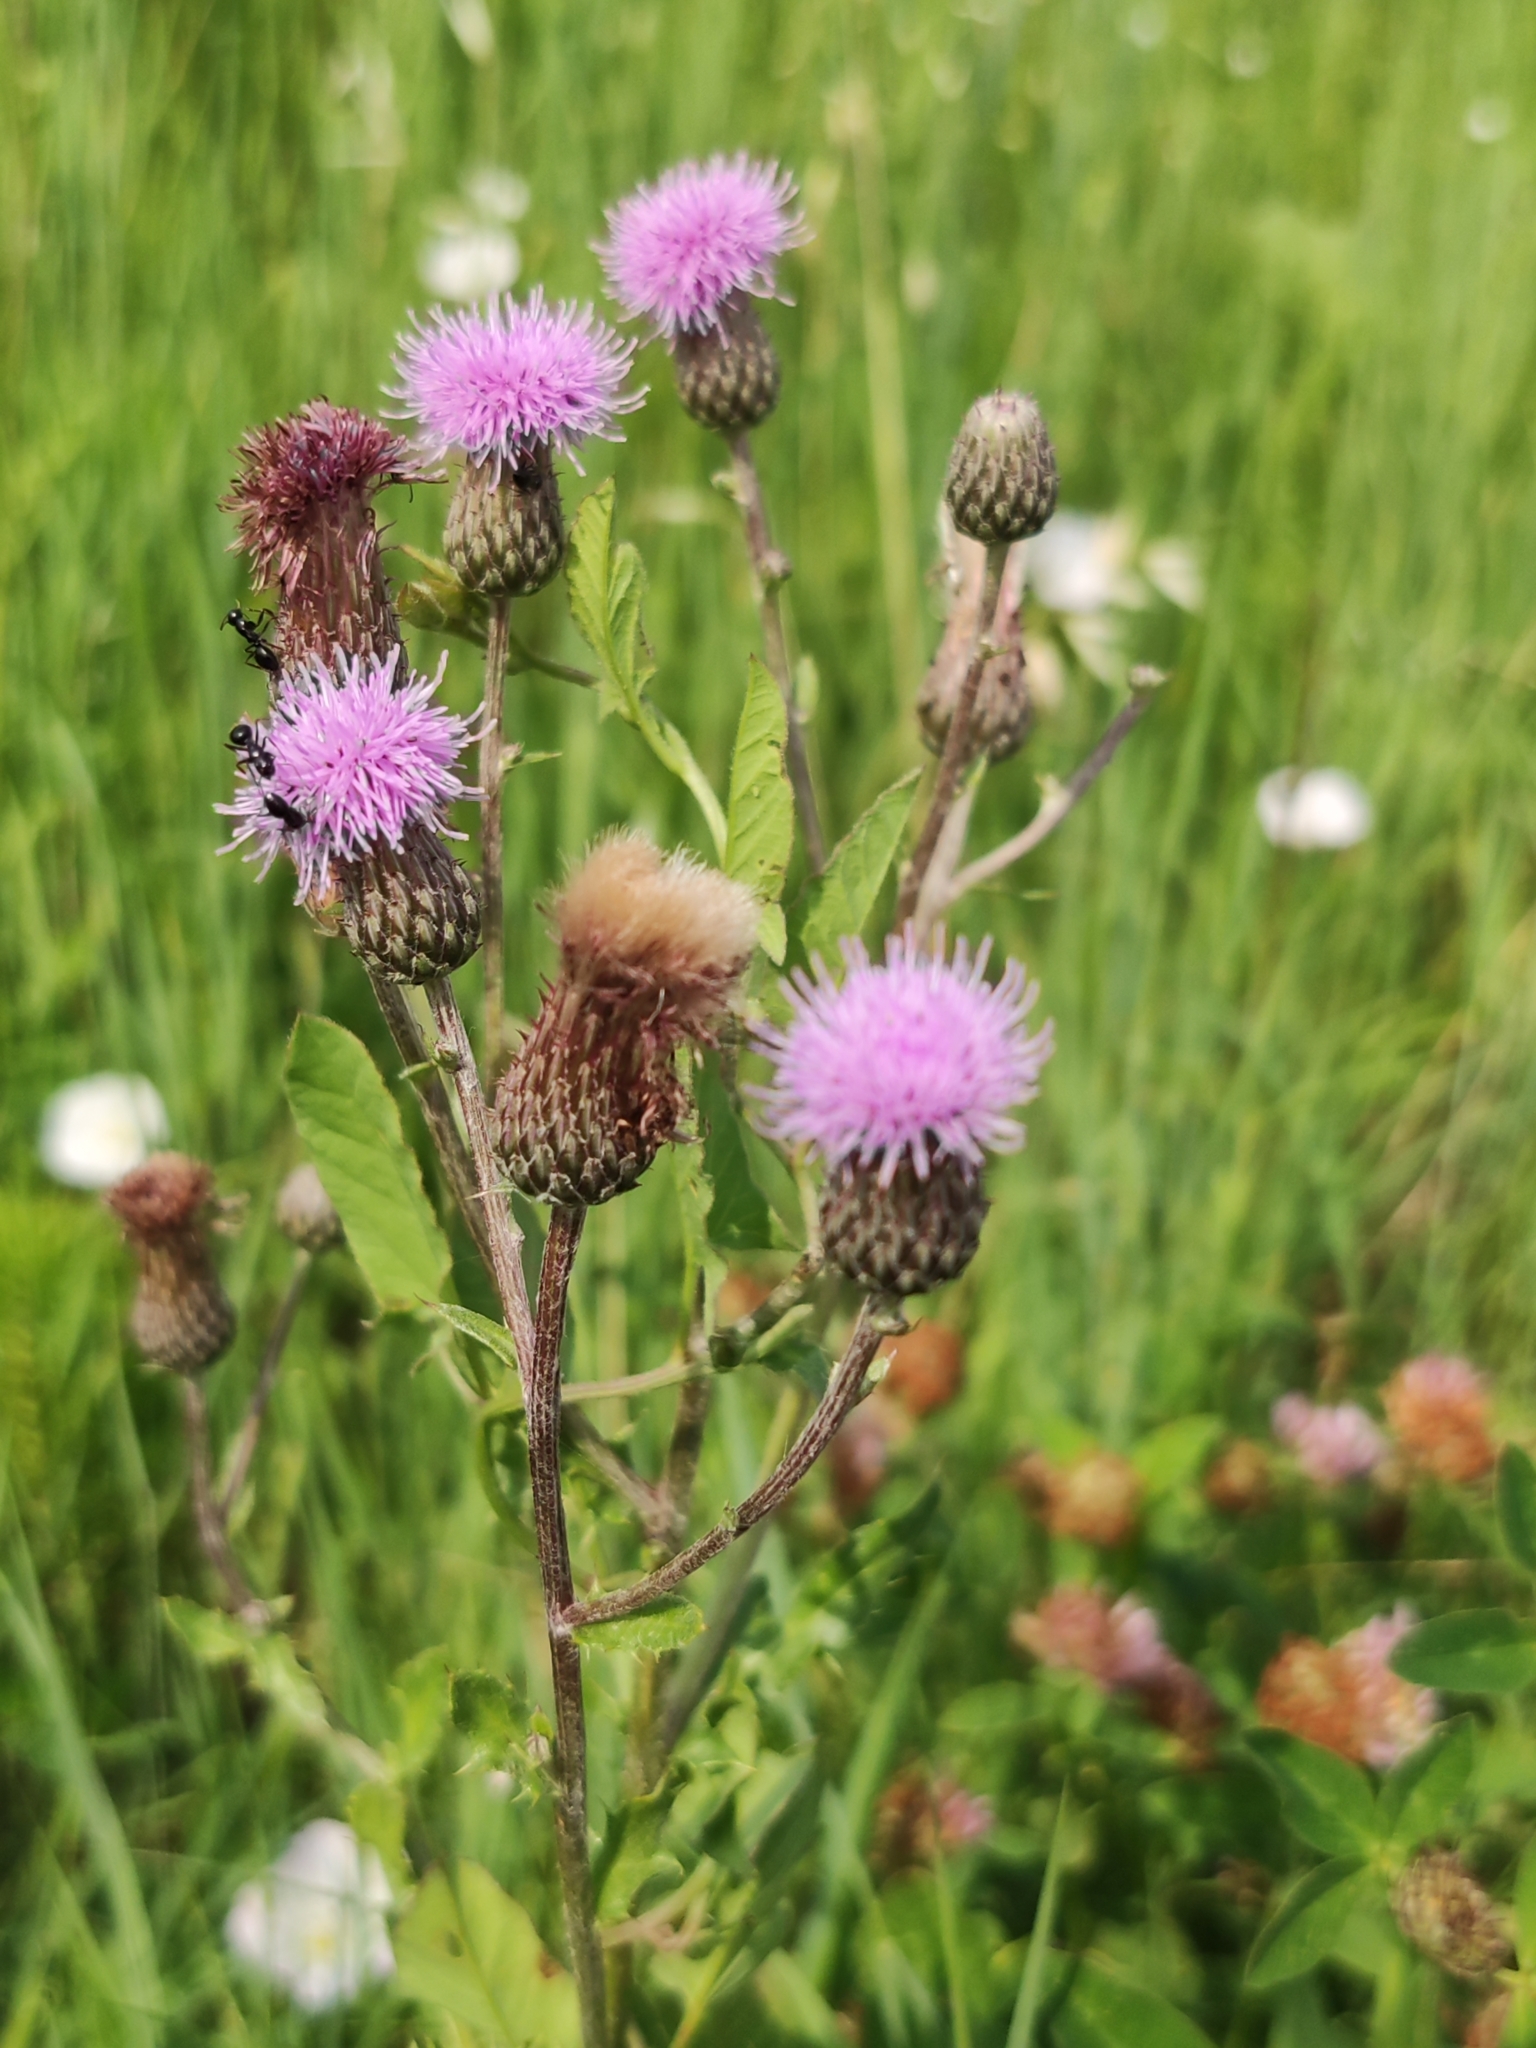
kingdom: Plantae
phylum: Tracheophyta
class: Magnoliopsida
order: Asterales
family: Asteraceae
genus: Cirsium
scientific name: Cirsium arvense
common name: Creeping thistle
